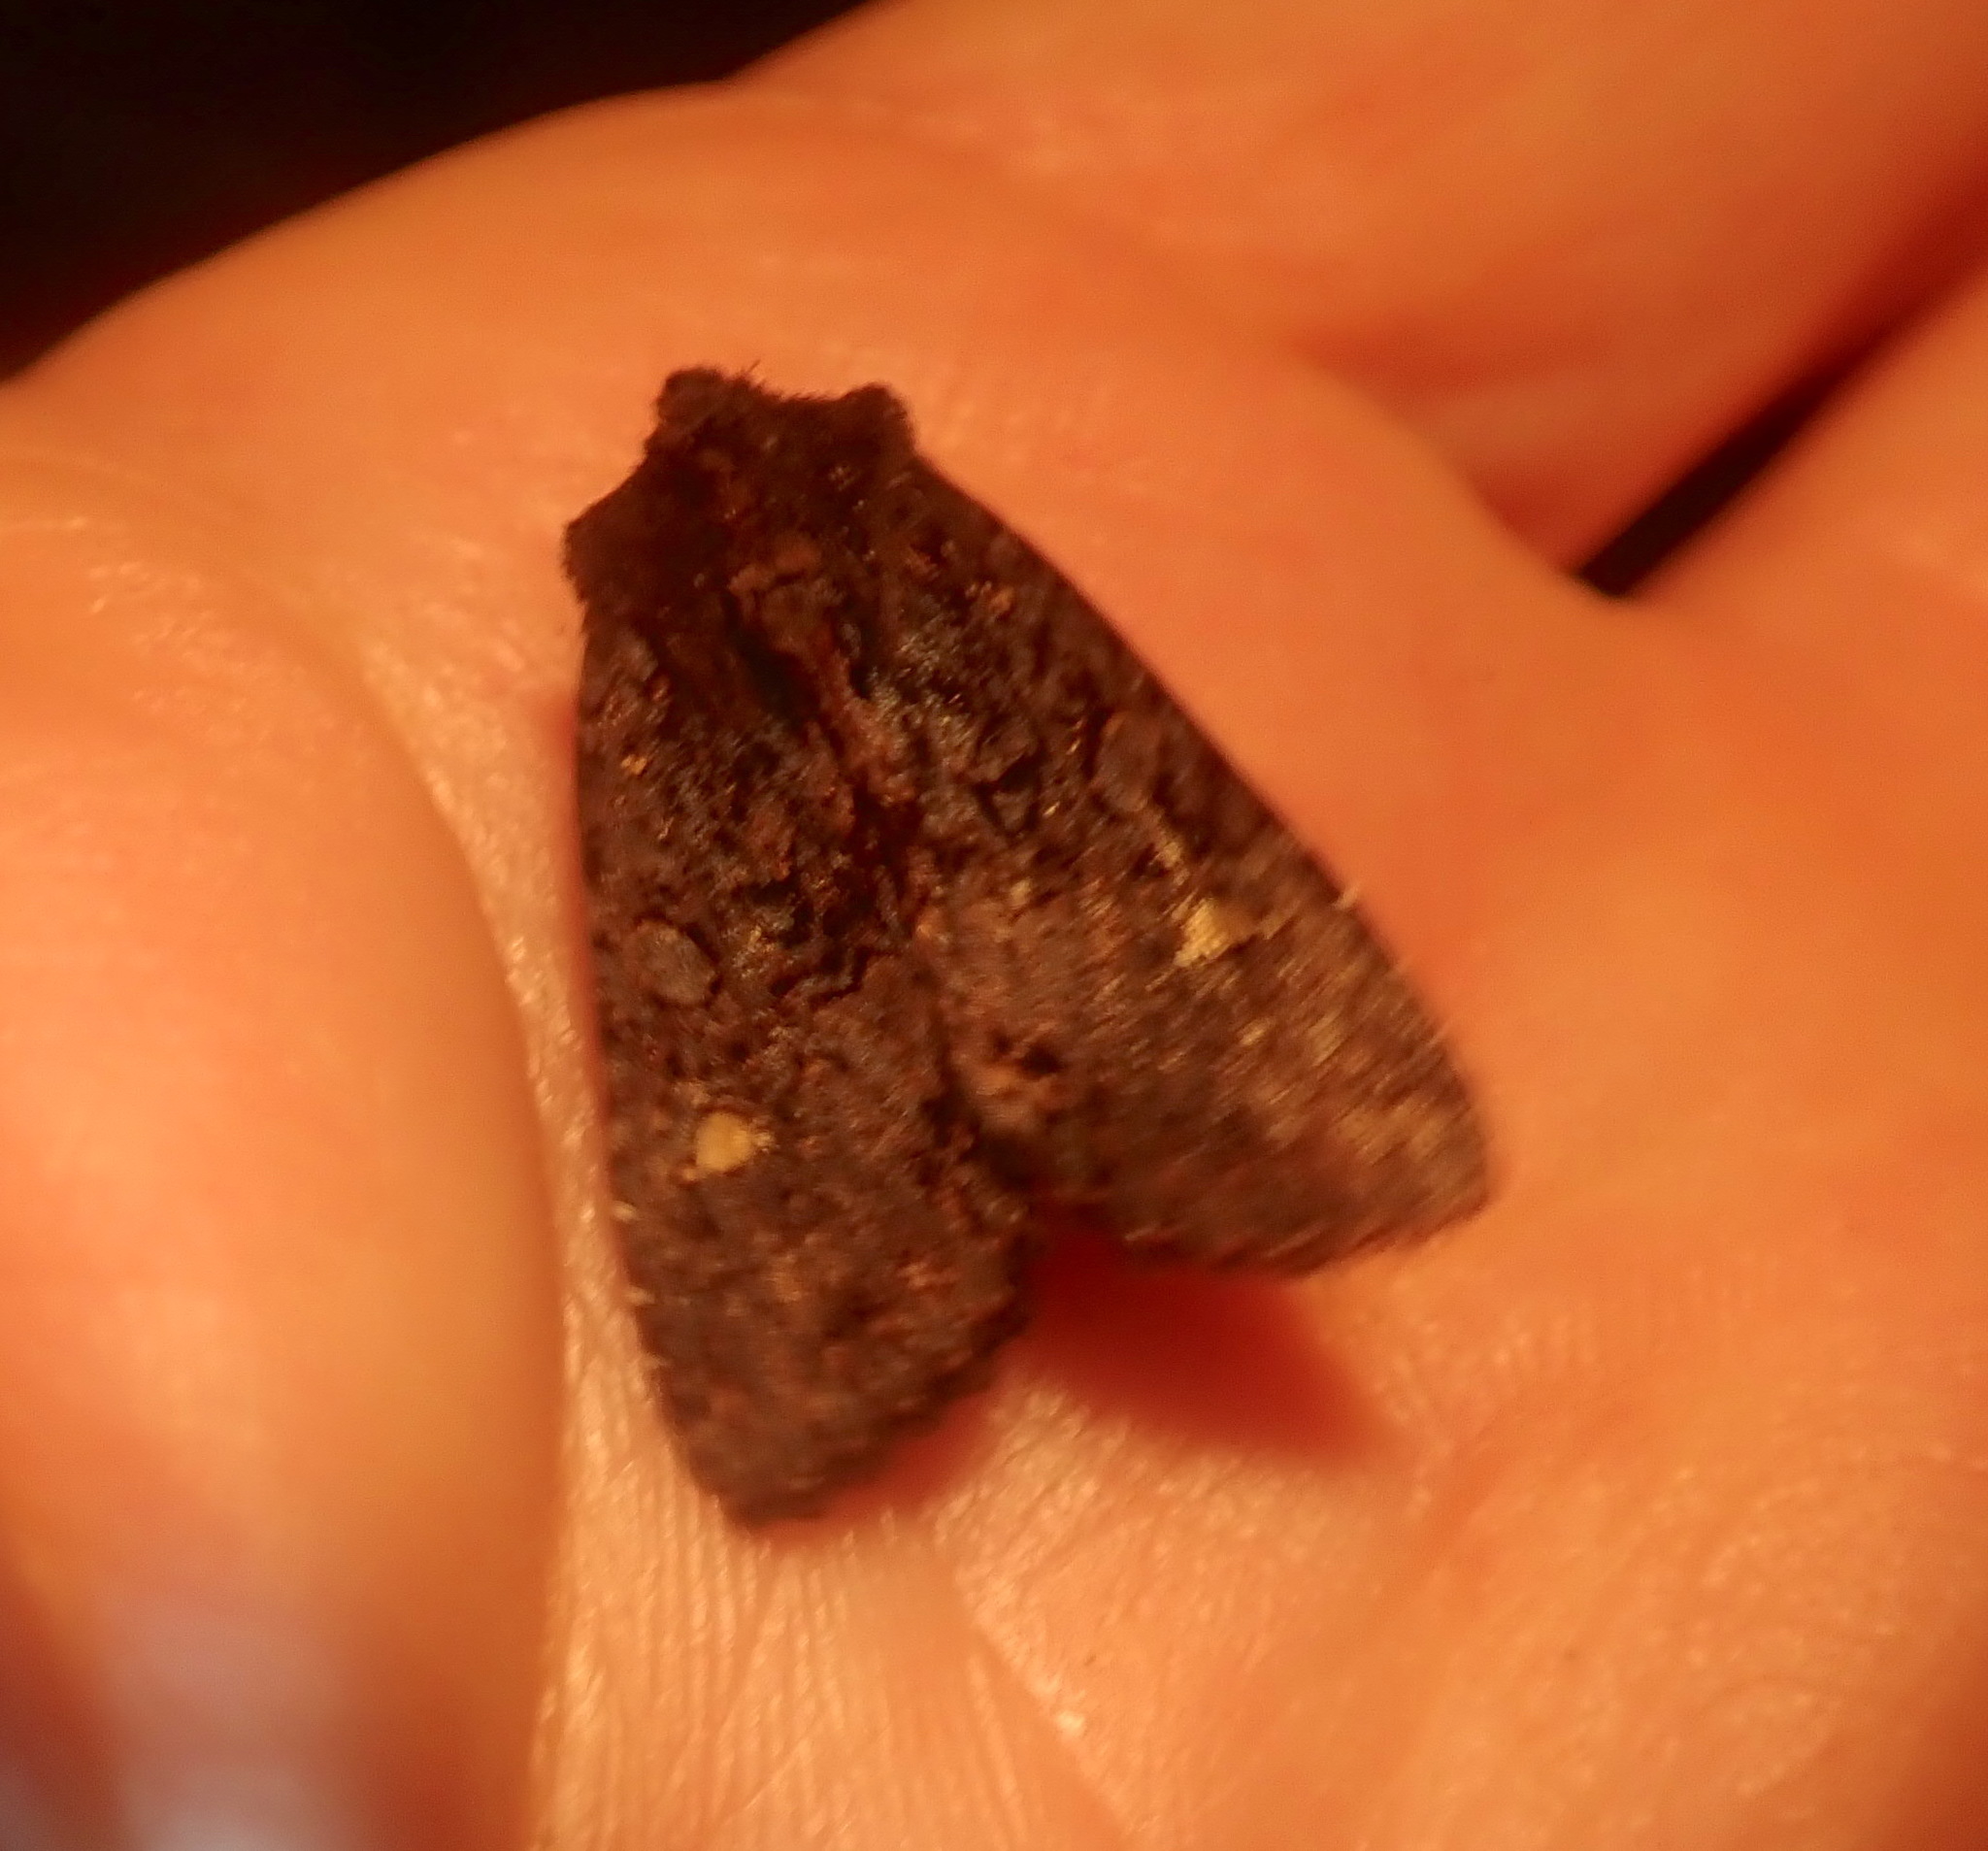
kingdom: Animalia
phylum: Arthropoda
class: Insecta
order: Lepidoptera
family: Noctuidae
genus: Meterana
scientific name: Meterana vitiosa
